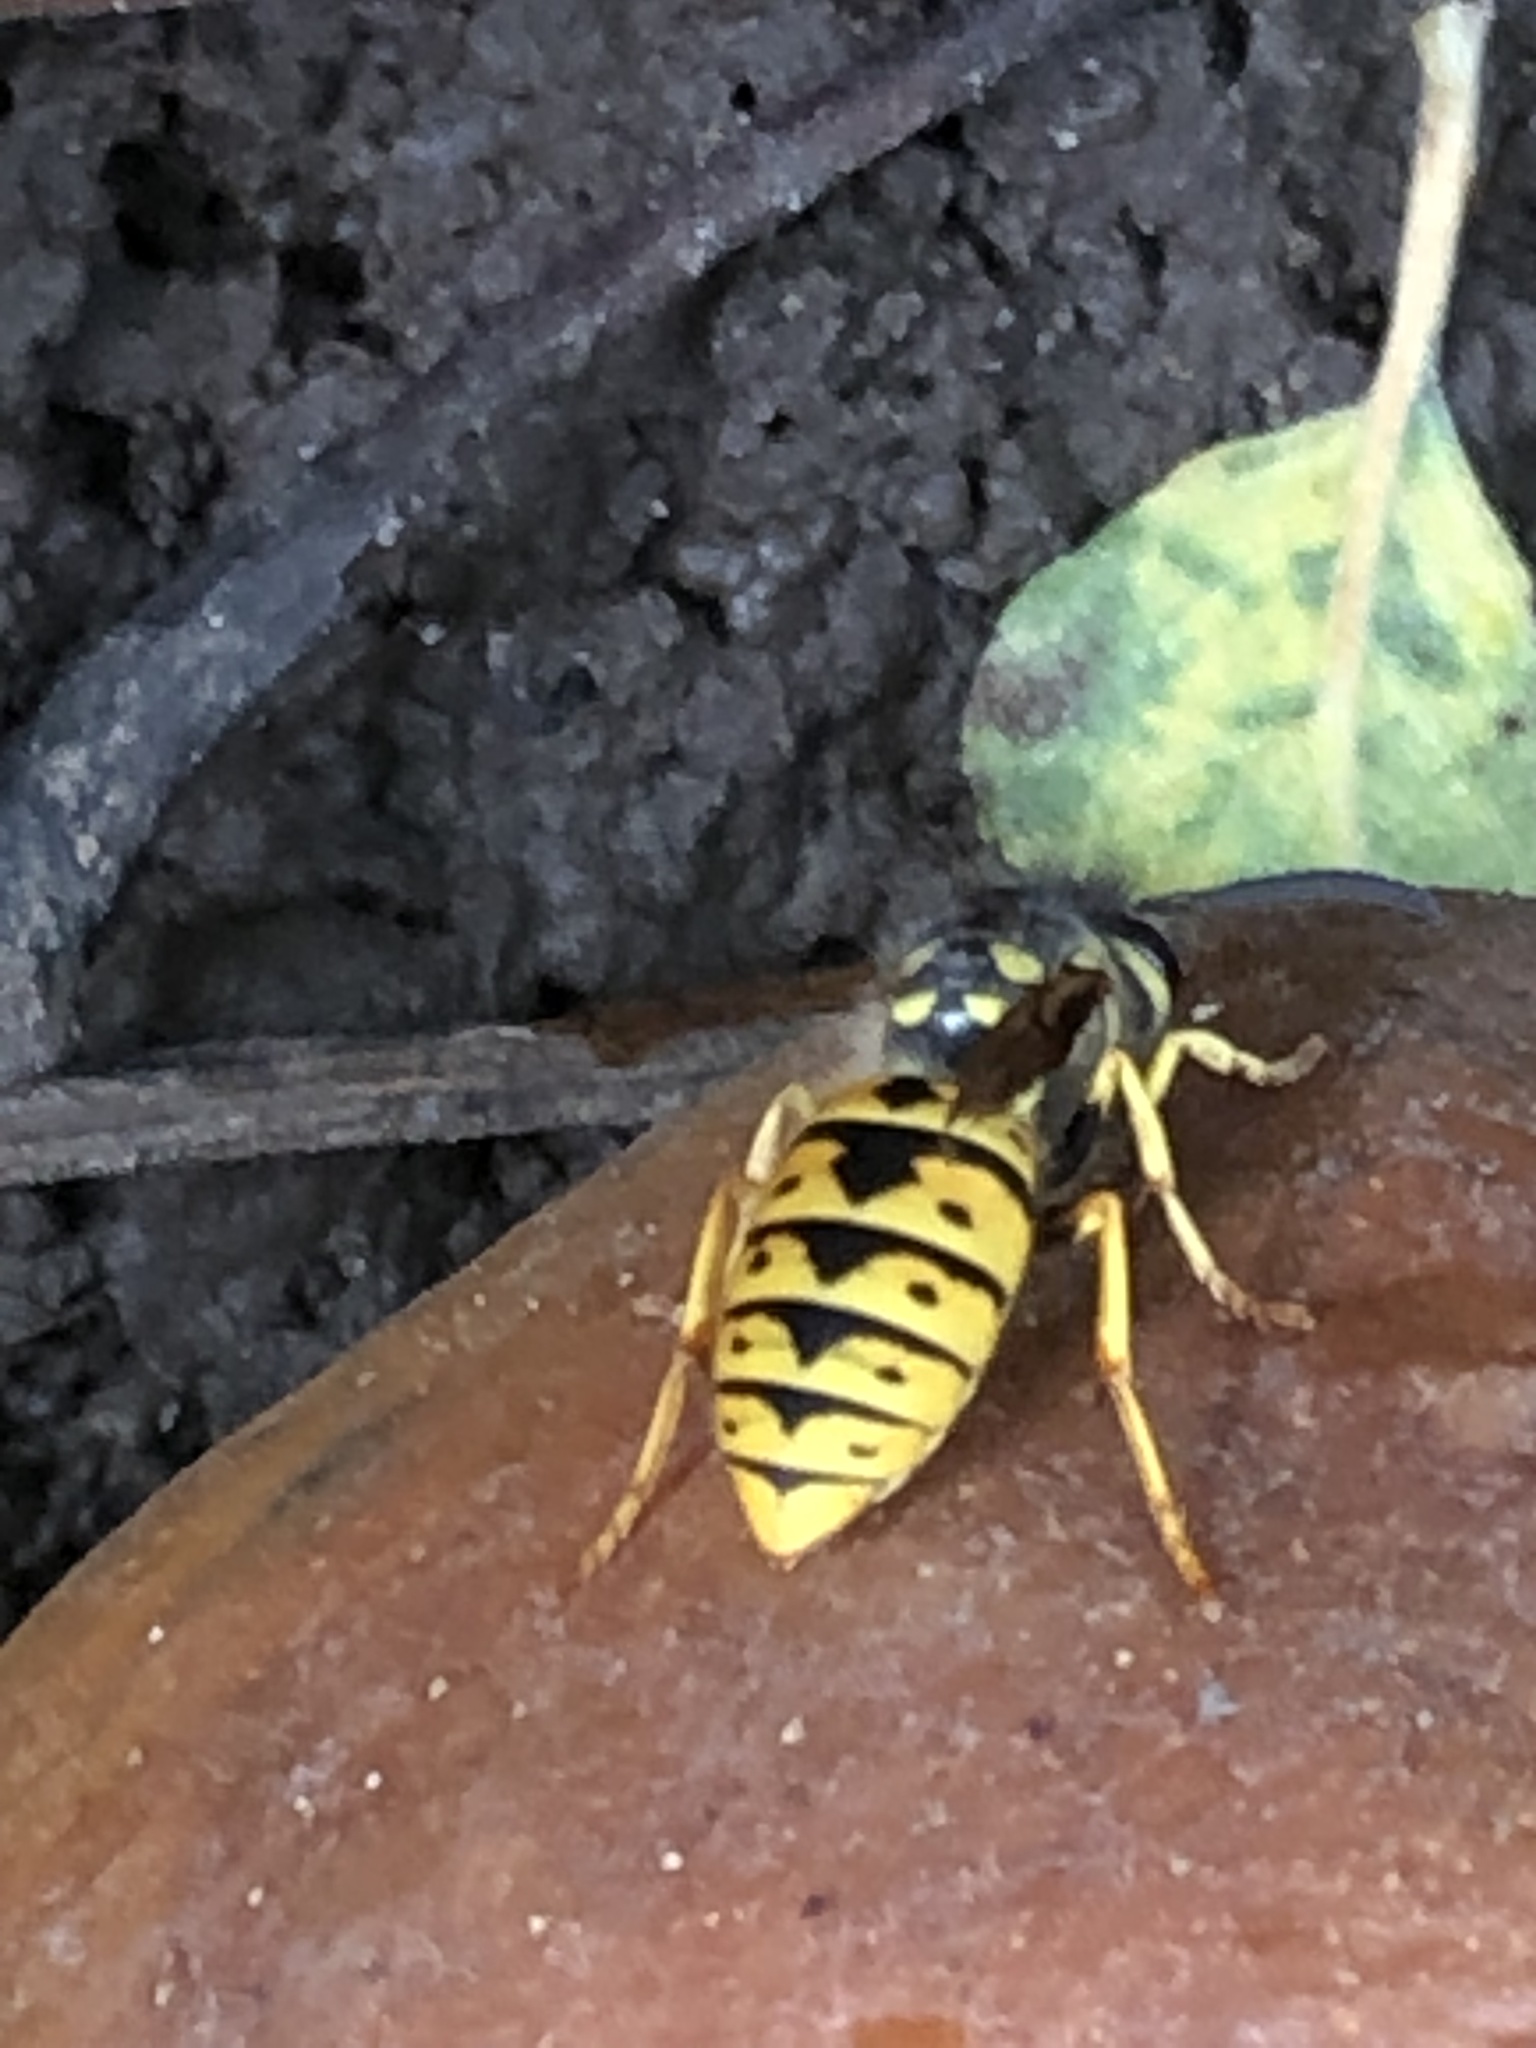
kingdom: Animalia
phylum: Arthropoda
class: Insecta
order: Hymenoptera
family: Vespidae
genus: Vespula
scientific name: Vespula germanica
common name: German wasp
